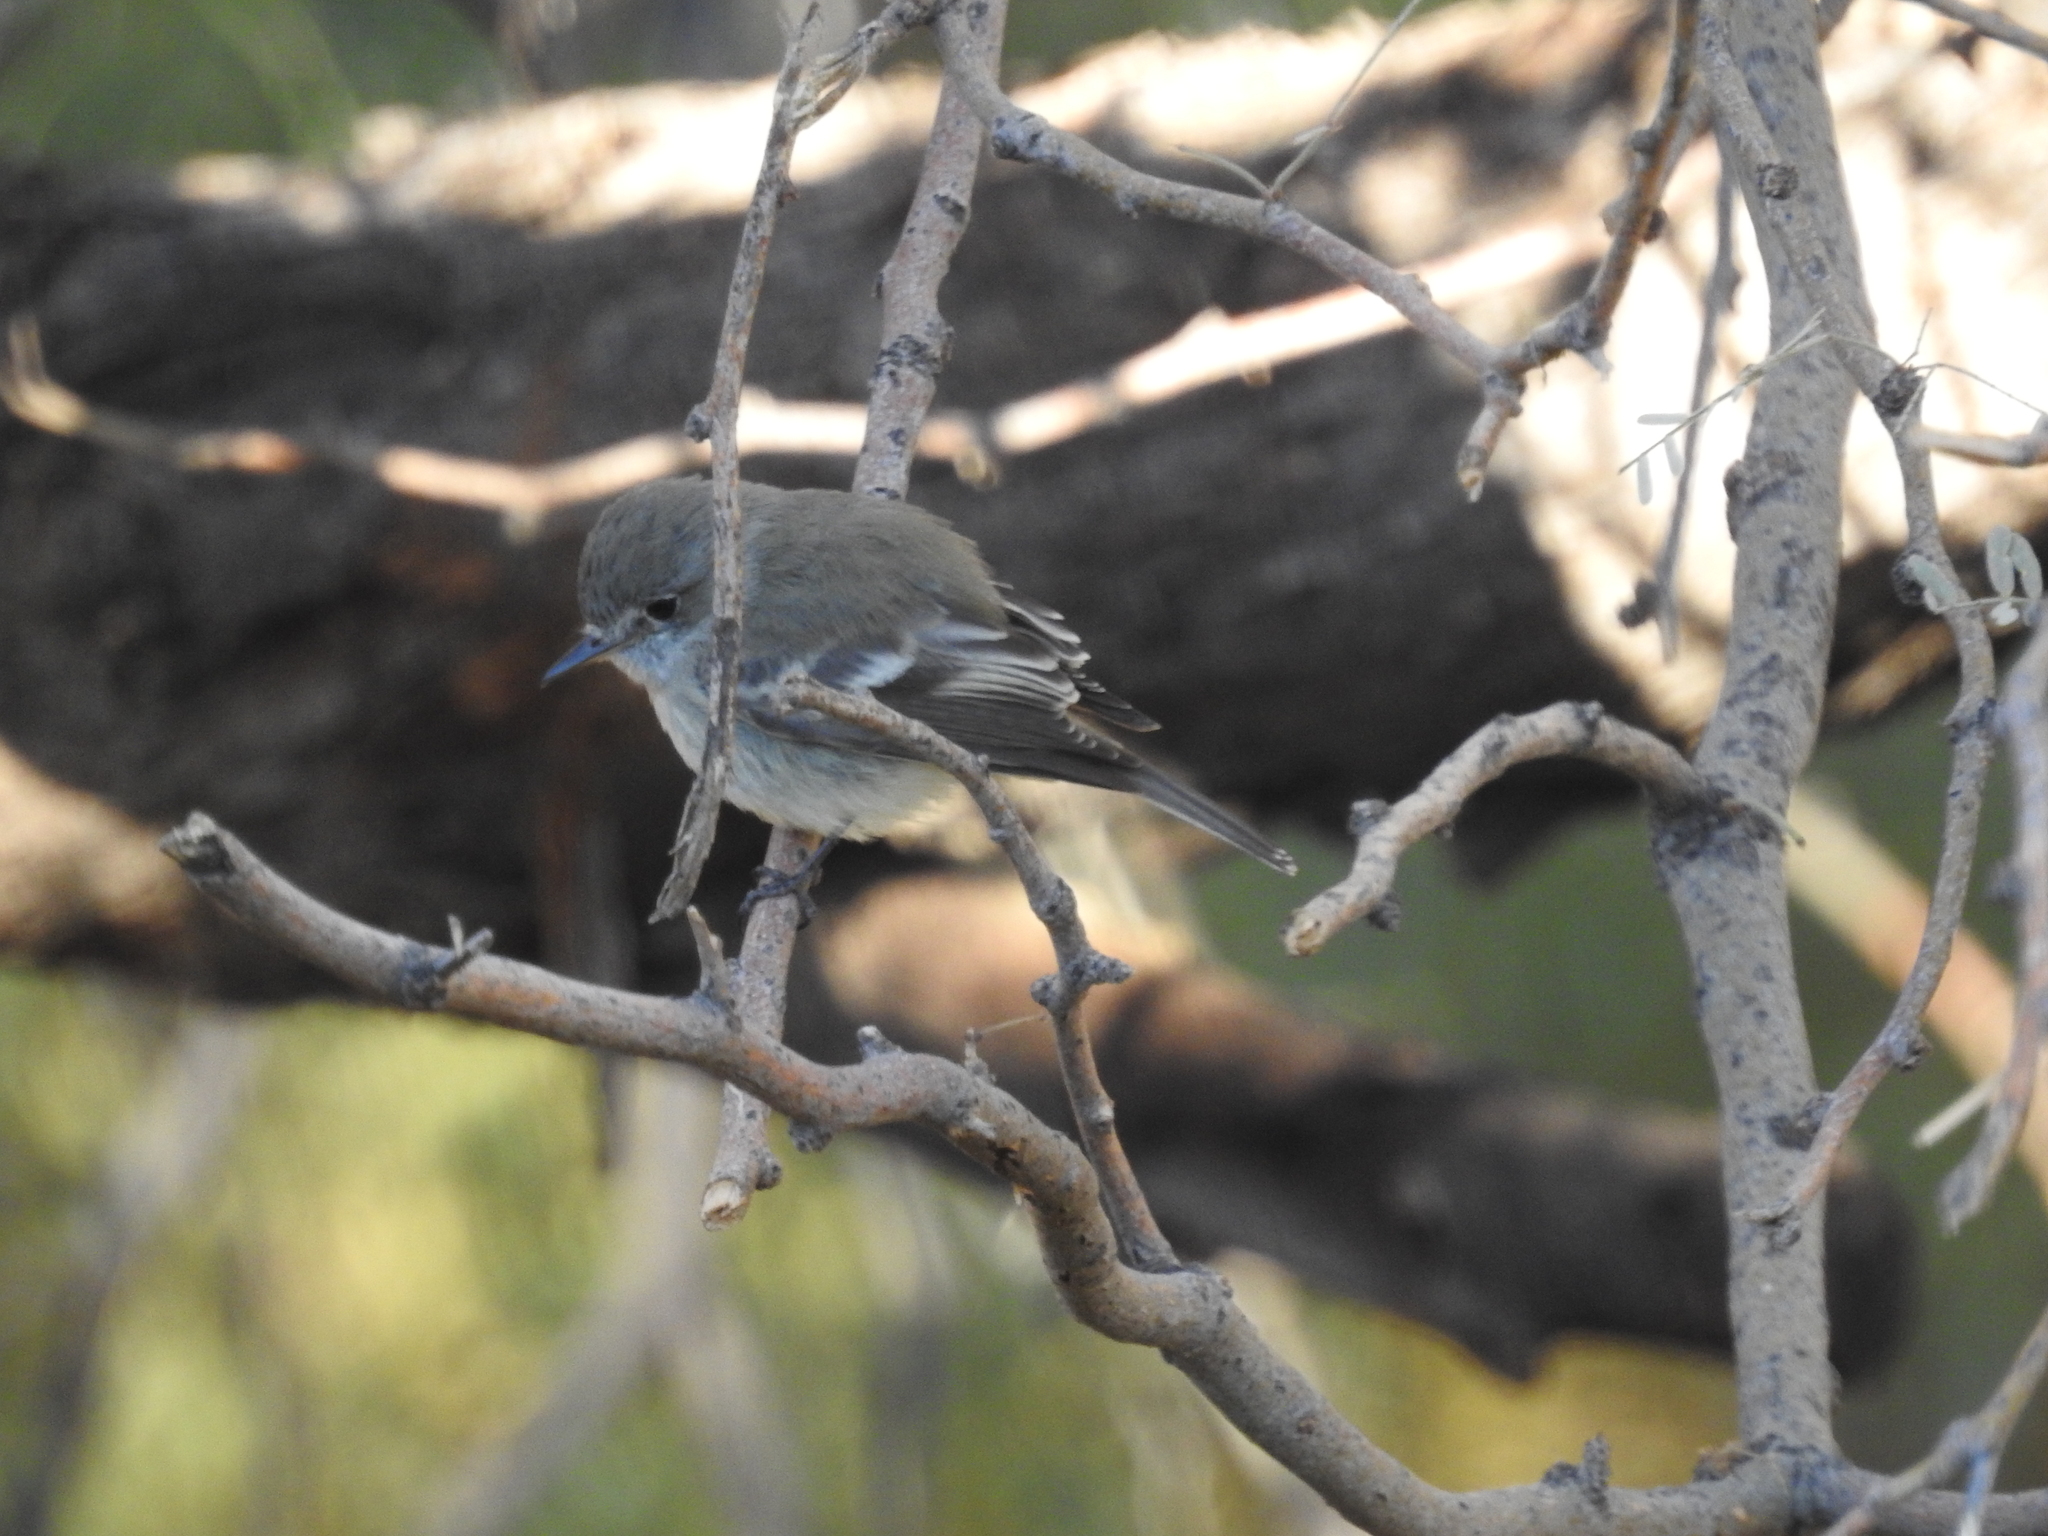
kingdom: Animalia
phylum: Chordata
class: Aves
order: Passeriformes
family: Tyrannidae
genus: Empidonax
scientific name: Empidonax wrightii
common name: Gray flycatcher
